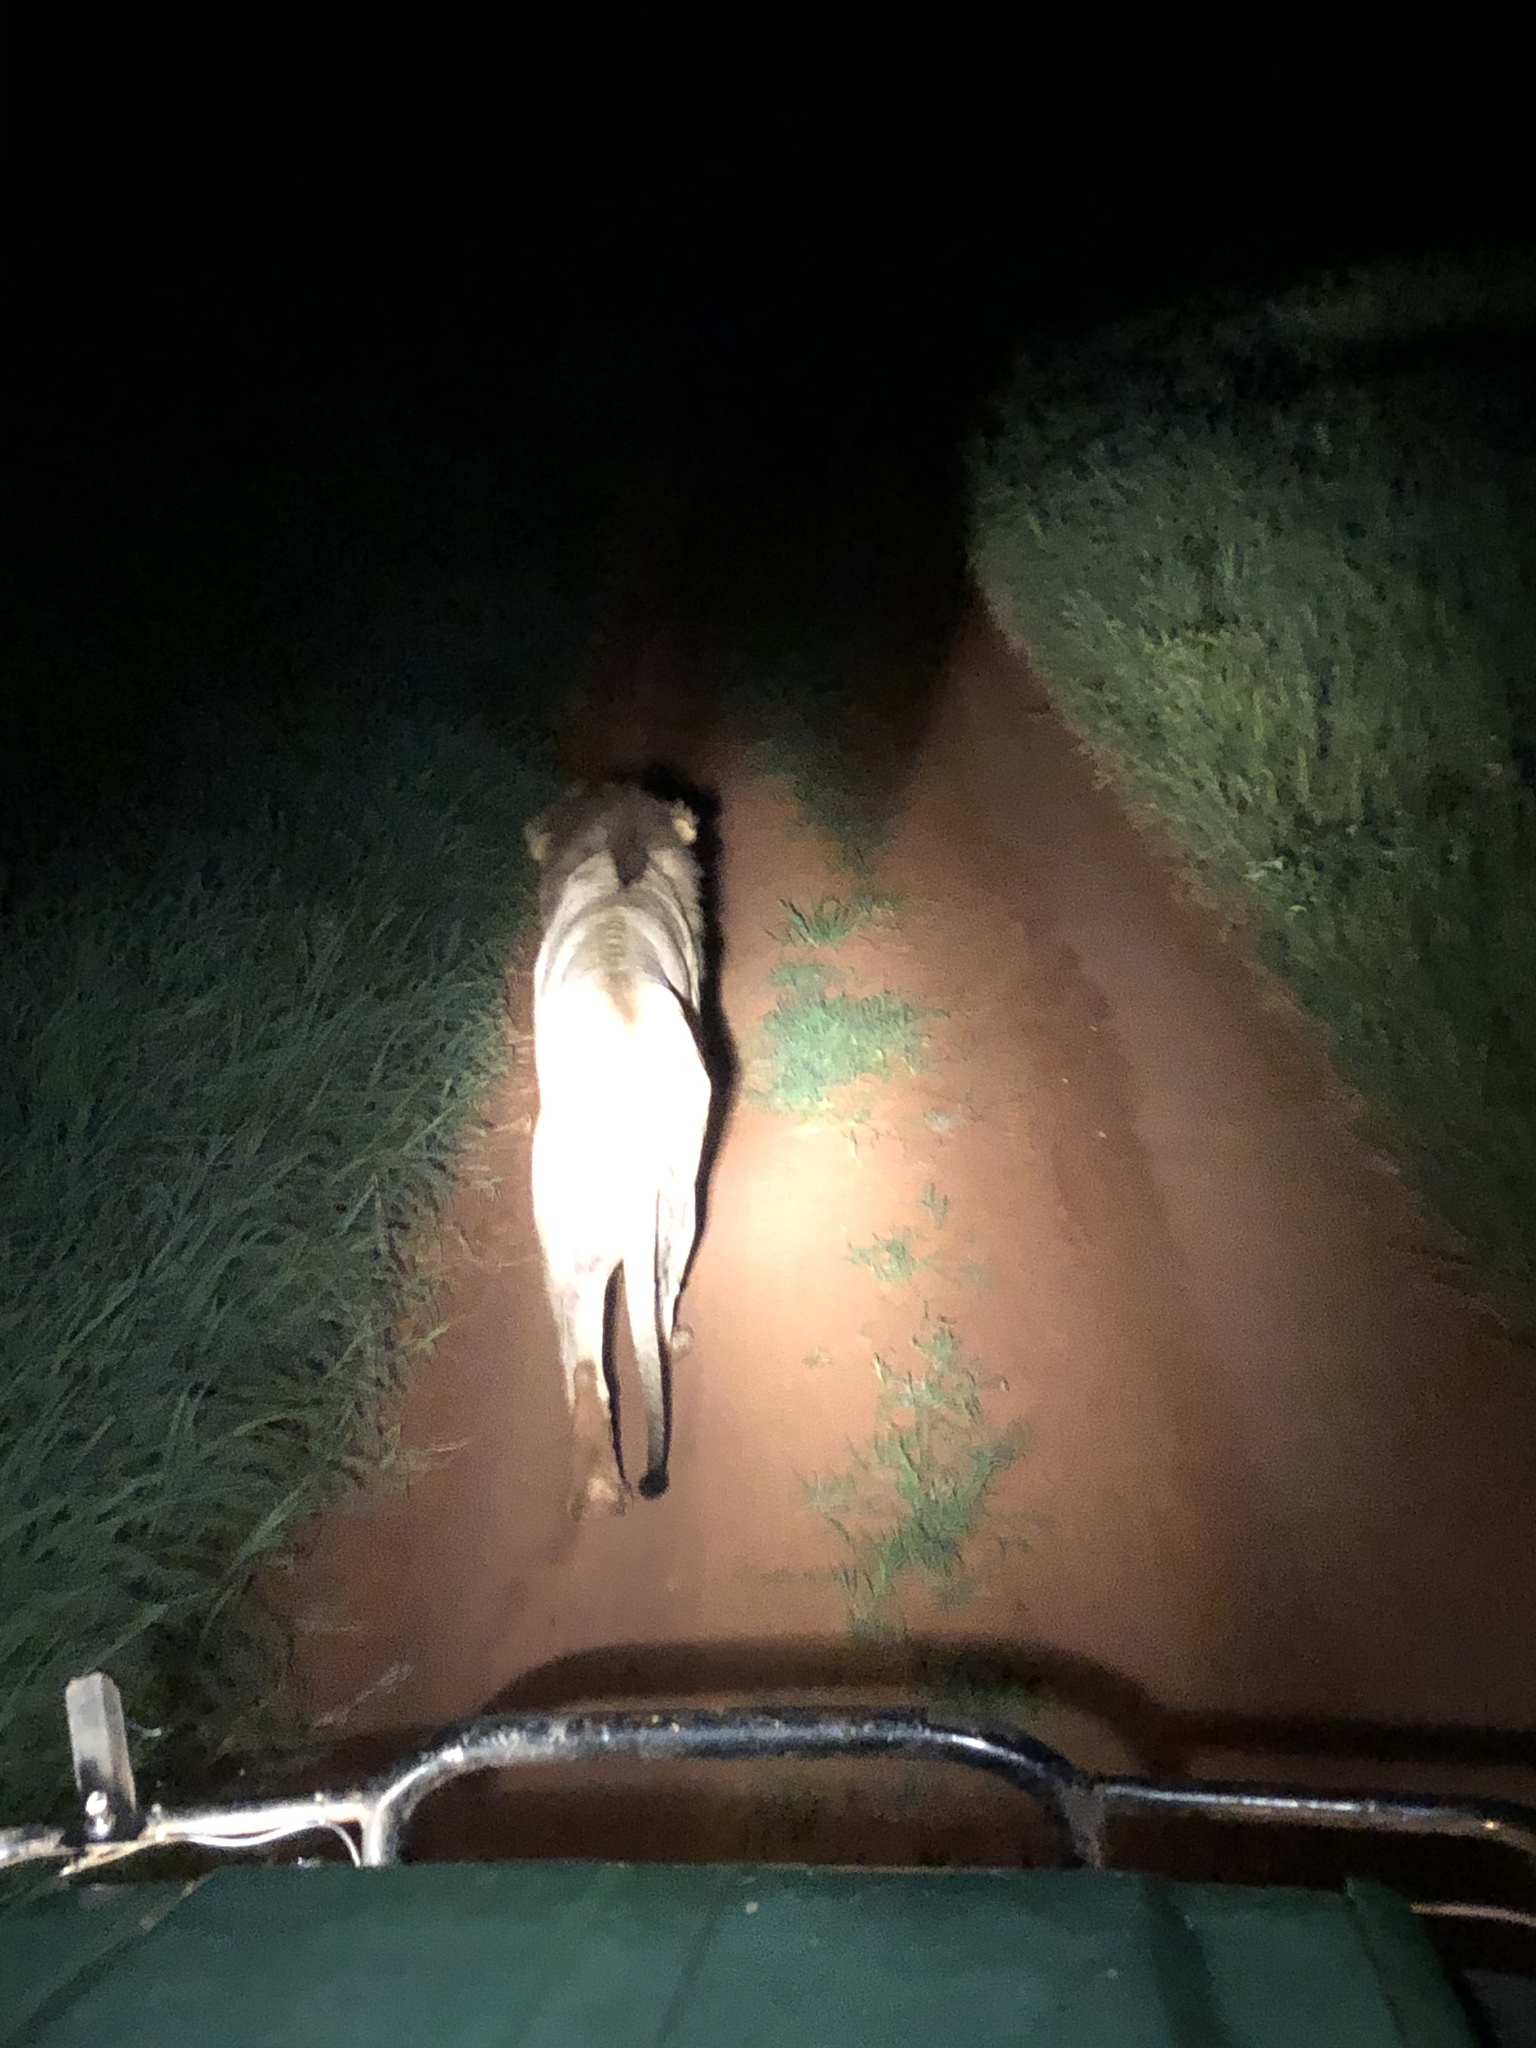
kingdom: Animalia
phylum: Chordata
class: Mammalia
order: Carnivora
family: Felidae
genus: Panthera
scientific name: Panthera leo
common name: Lion
